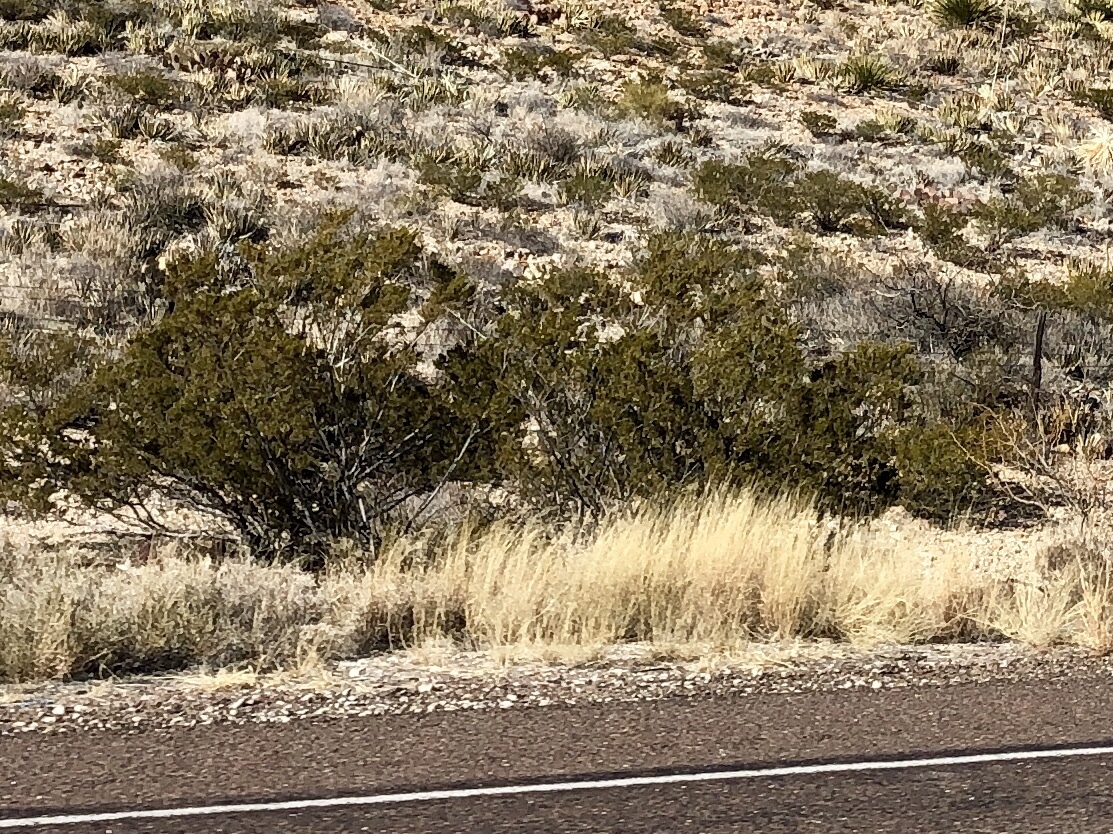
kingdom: Plantae
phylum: Tracheophyta
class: Magnoliopsida
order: Zygophyllales
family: Zygophyllaceae
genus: Larrea
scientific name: Larrea tridentata
